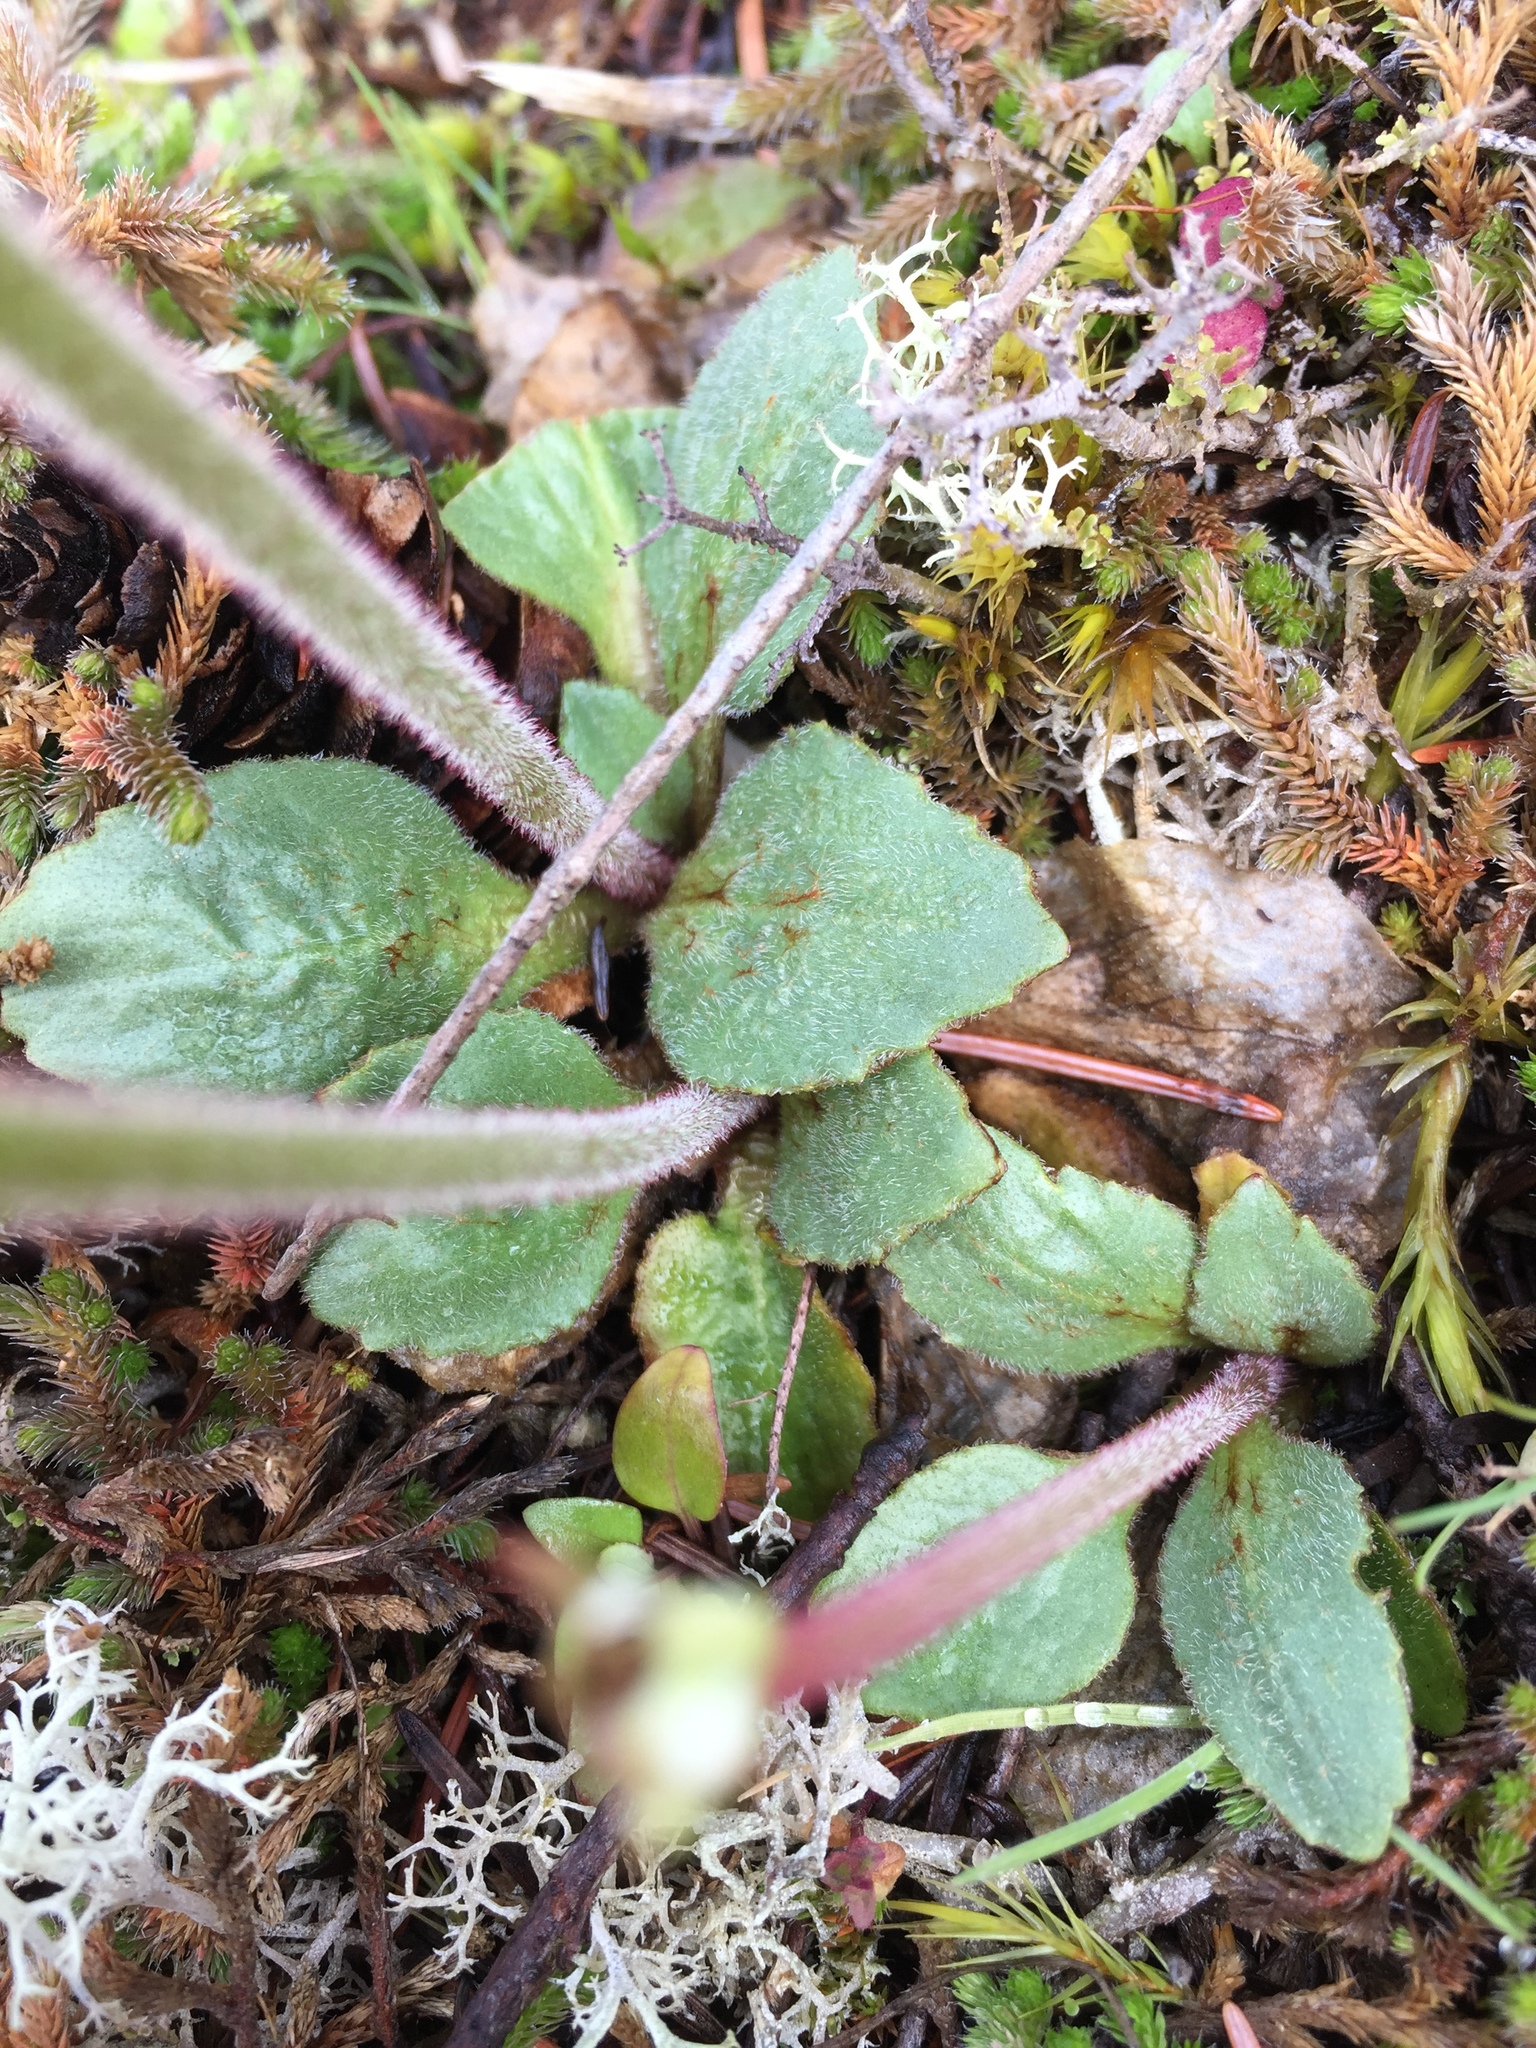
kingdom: Plantae
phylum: Tracheophyta
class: Magnoliopsida
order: Saxifragales
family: Saxifragaceae
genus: Micranthes
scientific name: Micranthes integrifolia
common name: Wholeleaf saxifrage
